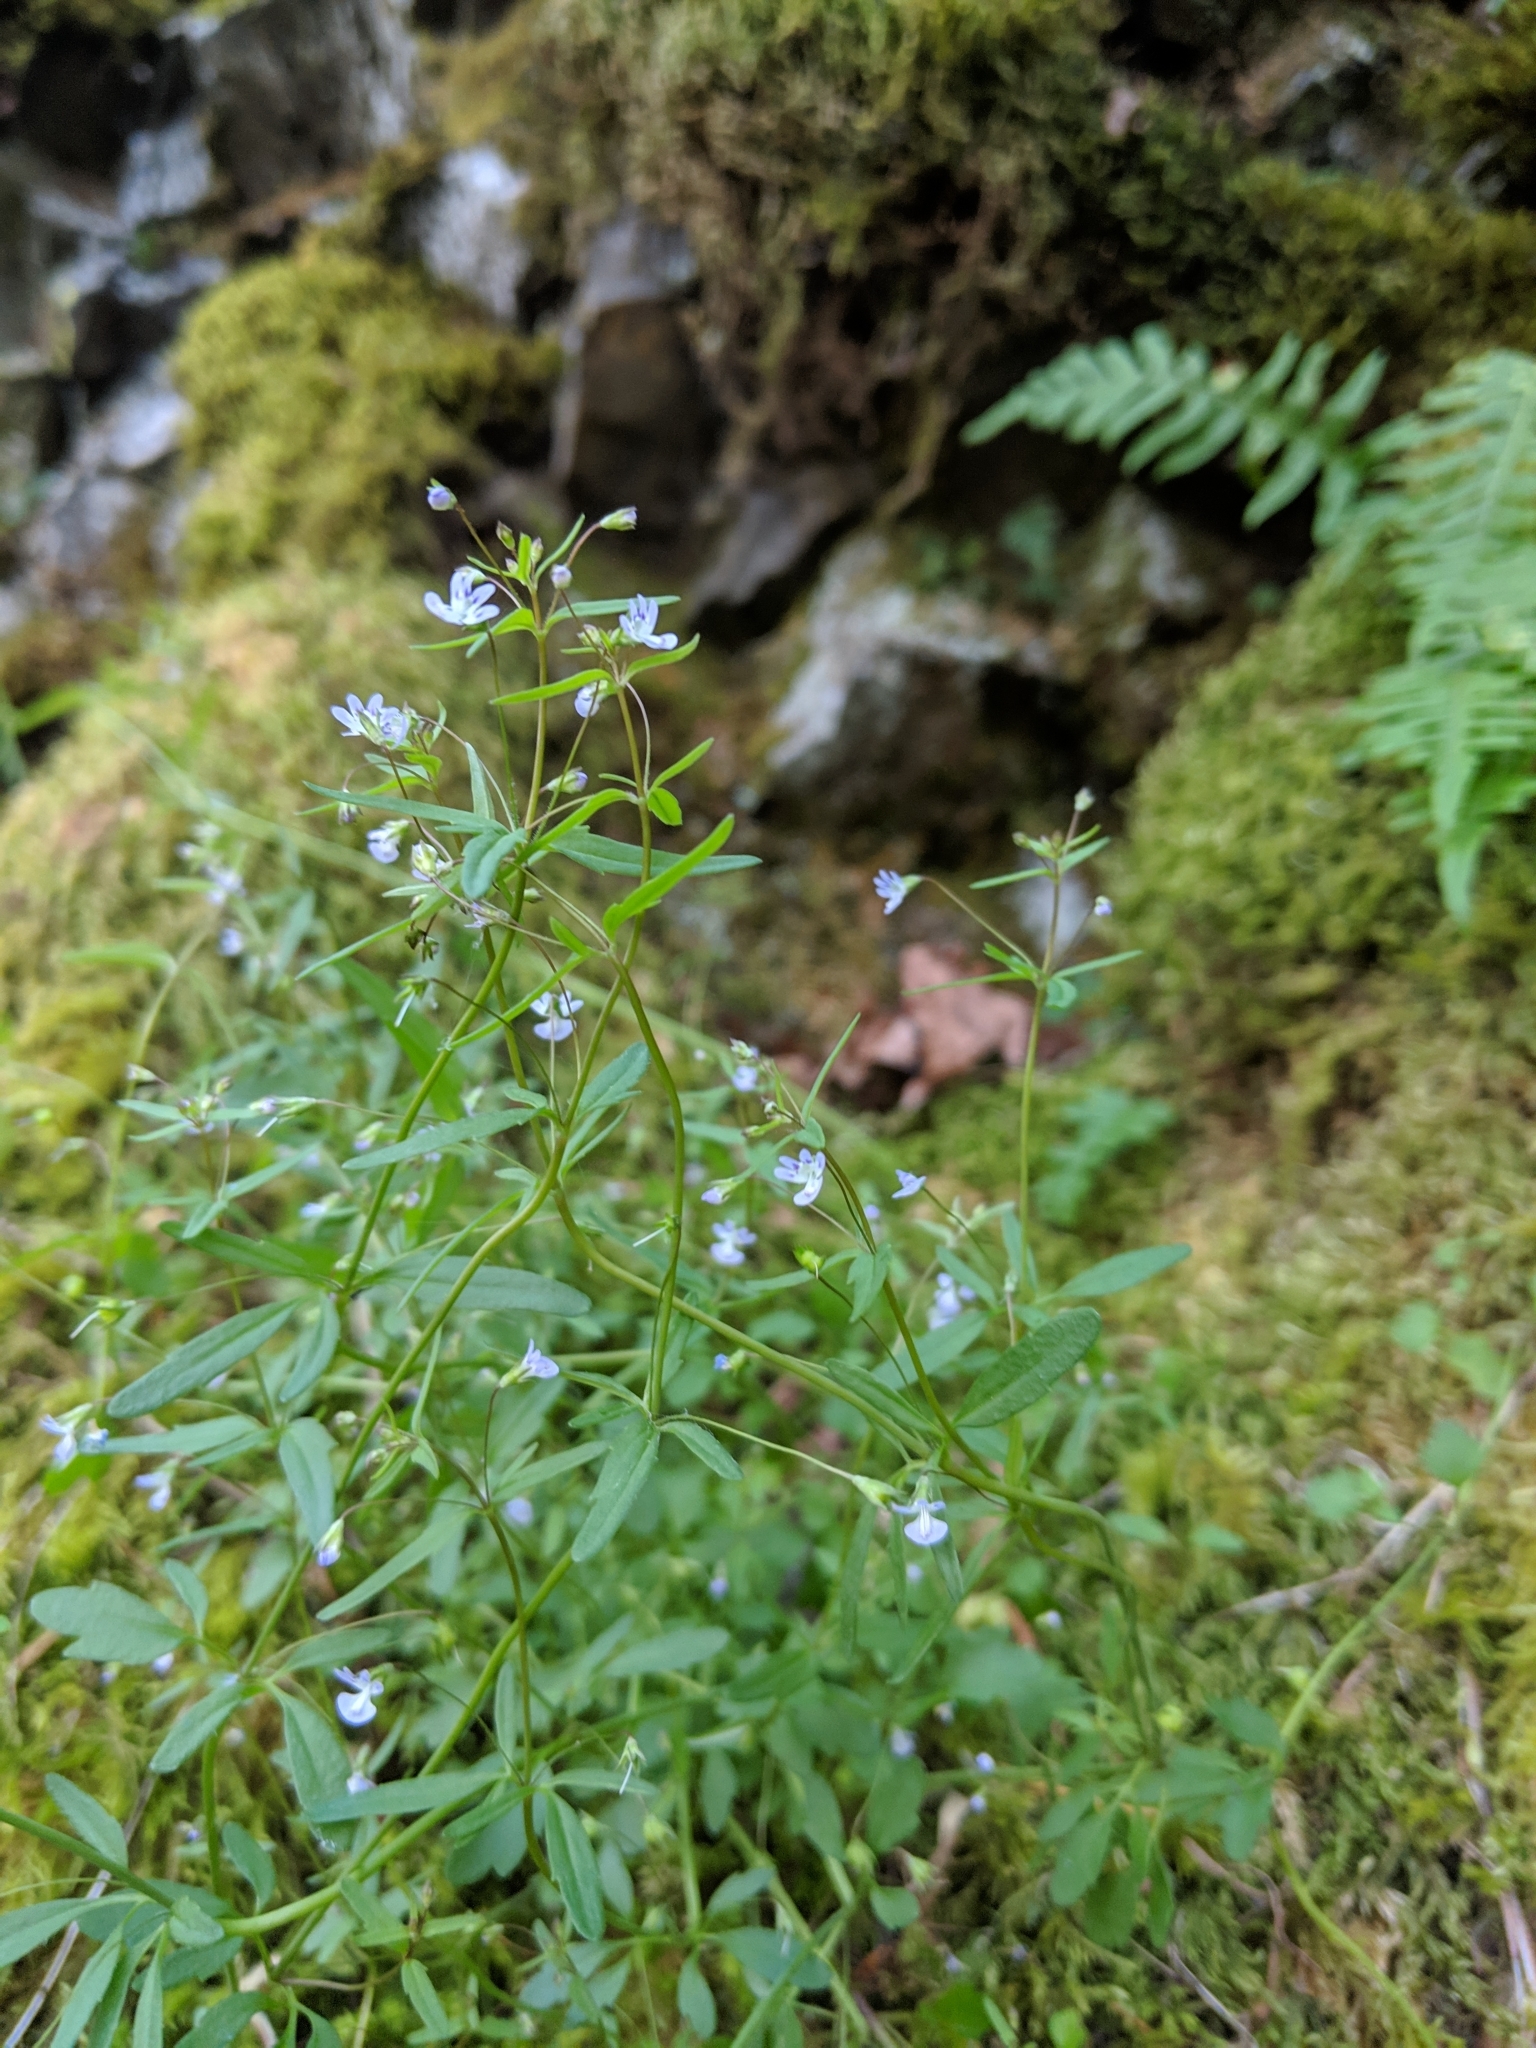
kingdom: Plantae
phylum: Tracheophyta
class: Magnoliopsida
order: Lamiales
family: Plantaginaceae
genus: Tonella
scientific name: Tonella tenella
